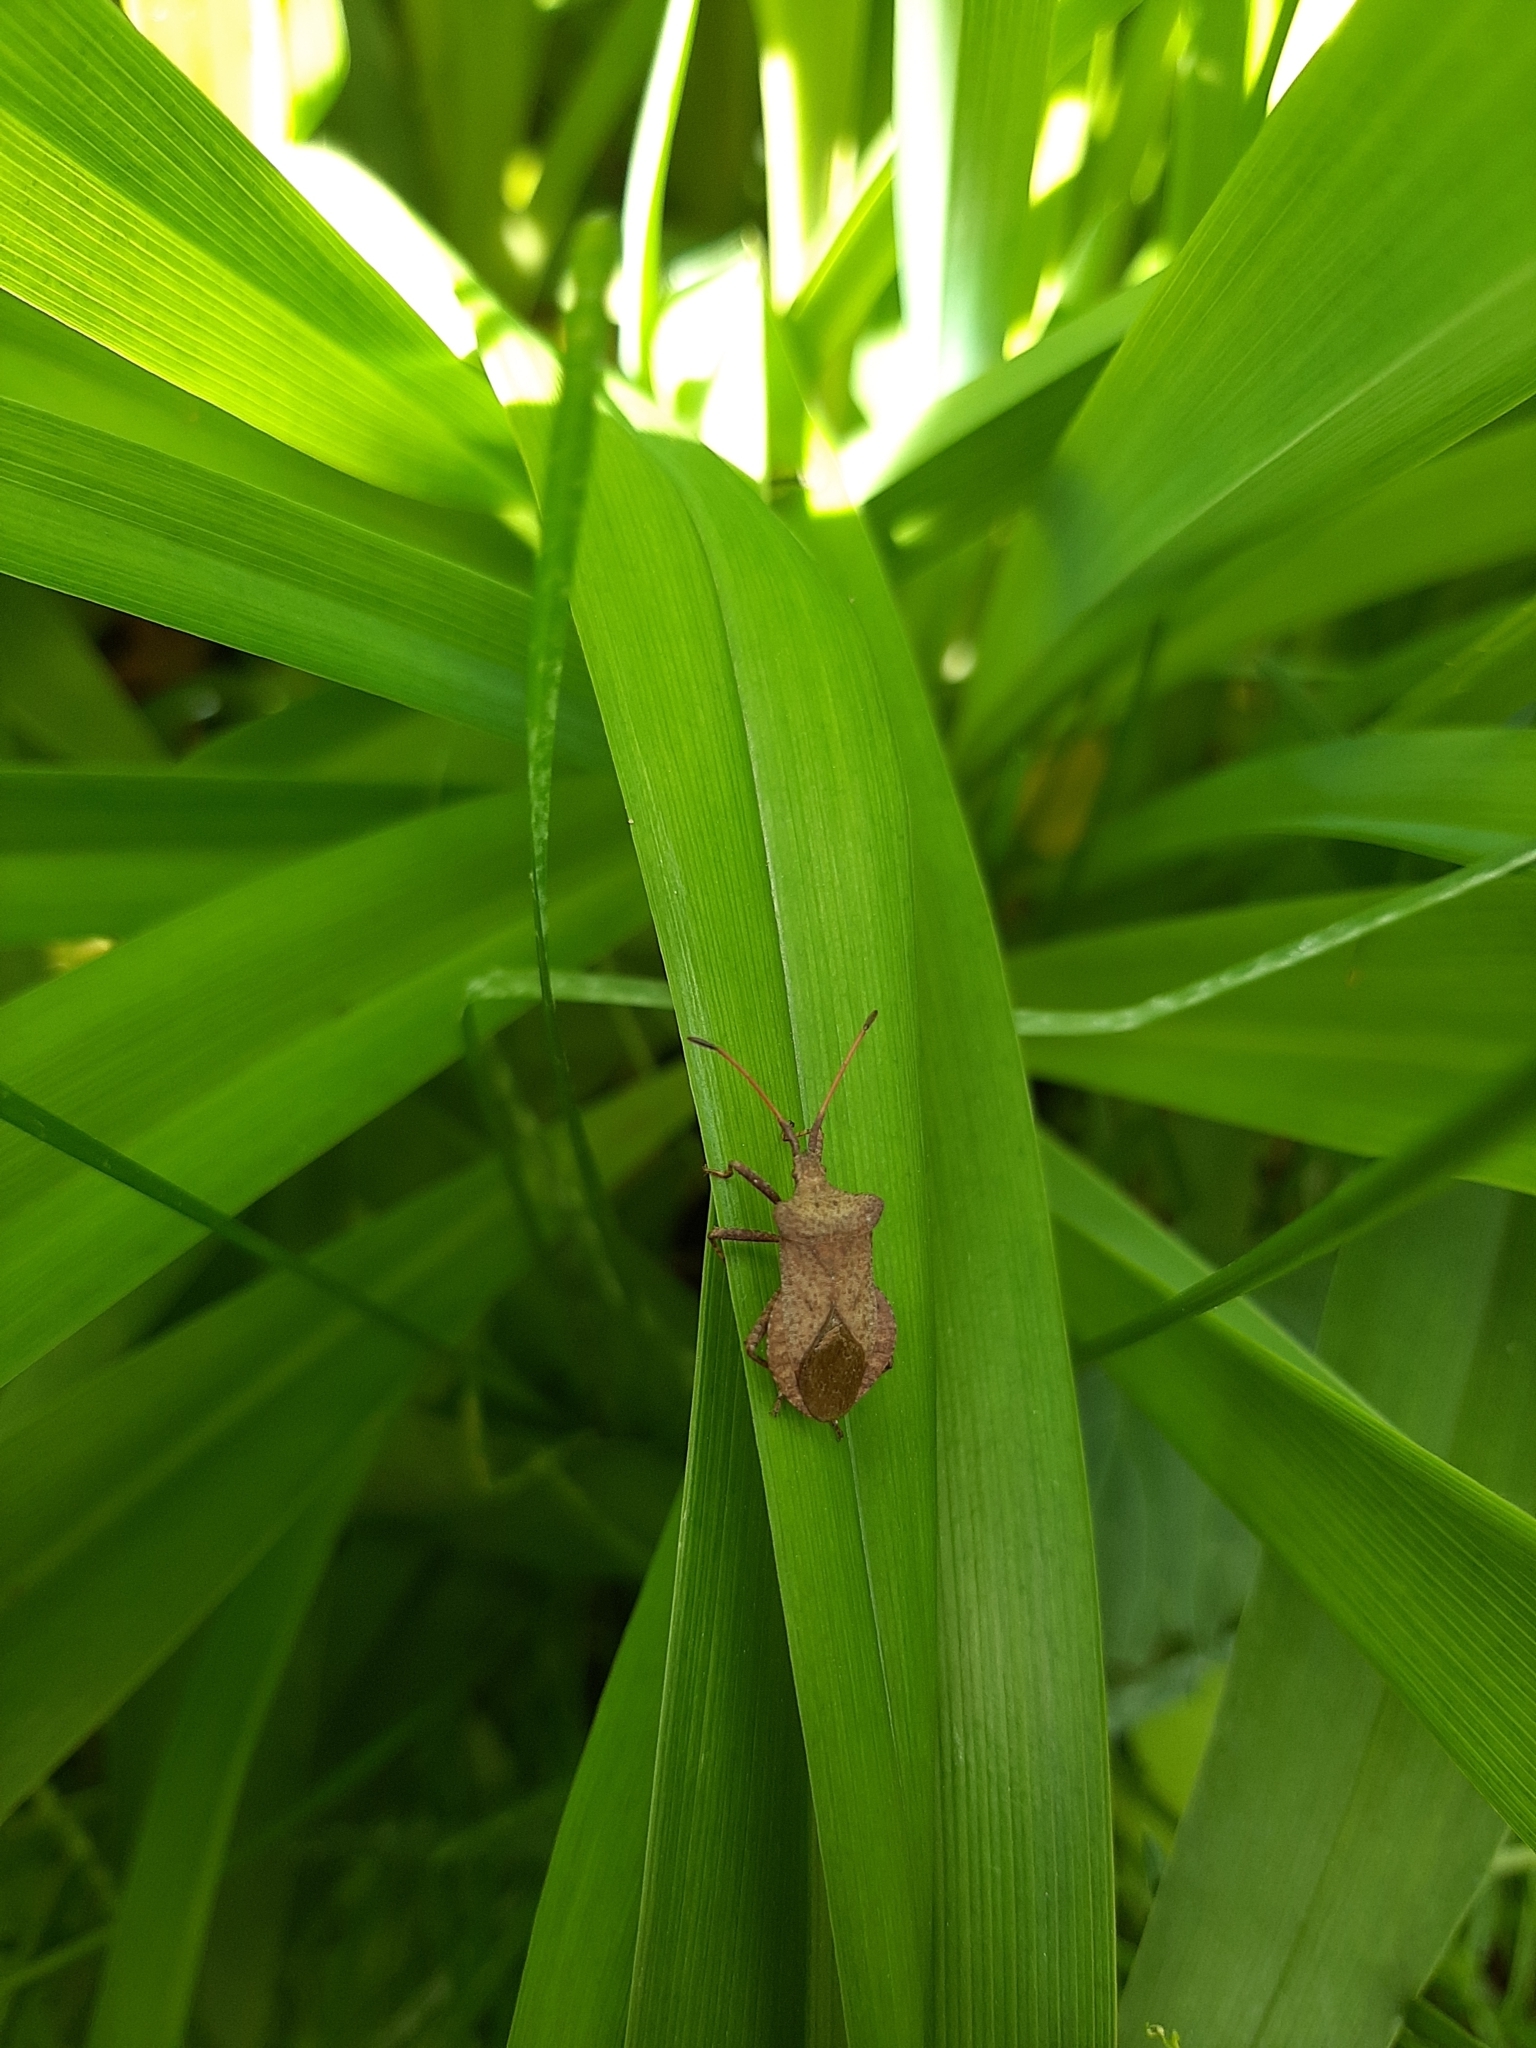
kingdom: Animalia
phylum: Arthropoda
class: Insecta
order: Hemiptera
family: Coreidae
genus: Coreus
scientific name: Coreus marginatus
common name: Dock bug
